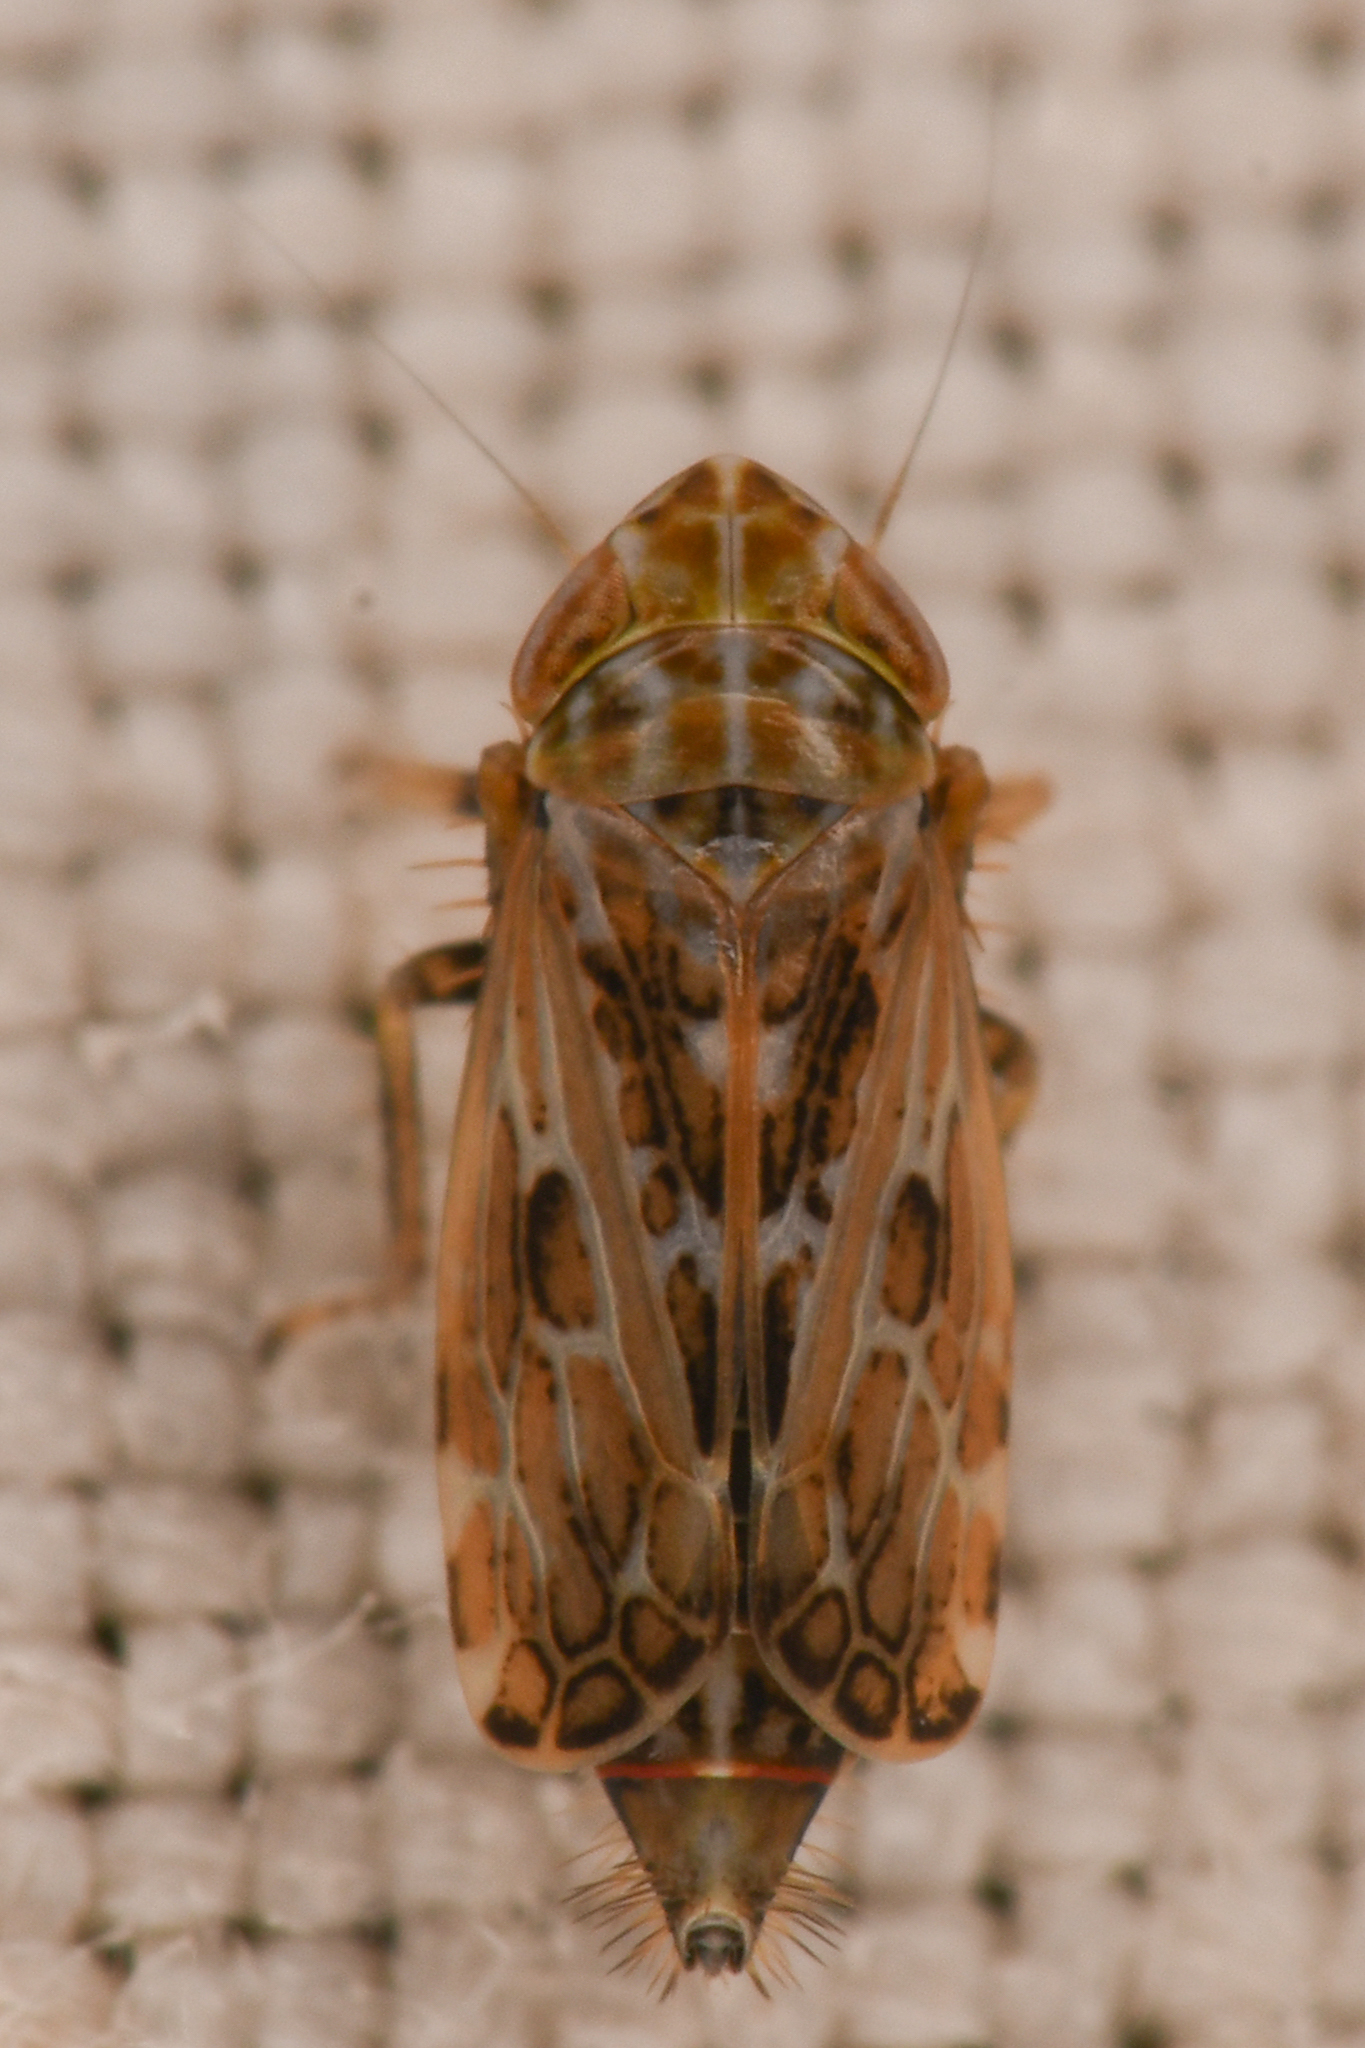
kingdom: Animalia
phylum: Arthropoda
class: Insecta
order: Hemiptera
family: Cicadellidae
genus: Errastunus
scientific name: Errastunus ocellaris
